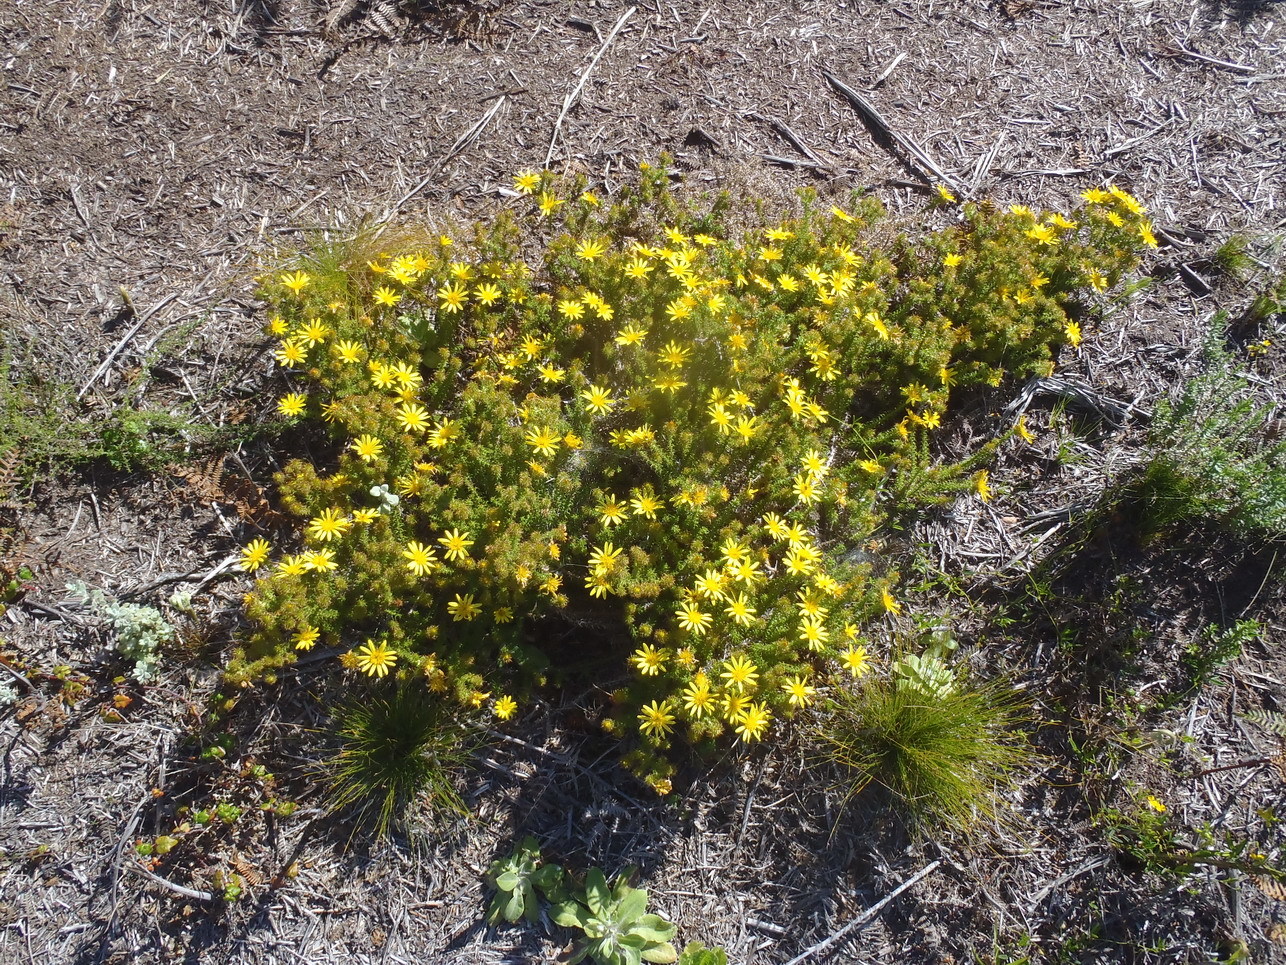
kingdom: Plantae
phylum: Tracheophyta
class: Magnoliopsida
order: Asterales
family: Asteraceae
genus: Cullumia
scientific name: Cullumia decurrens
